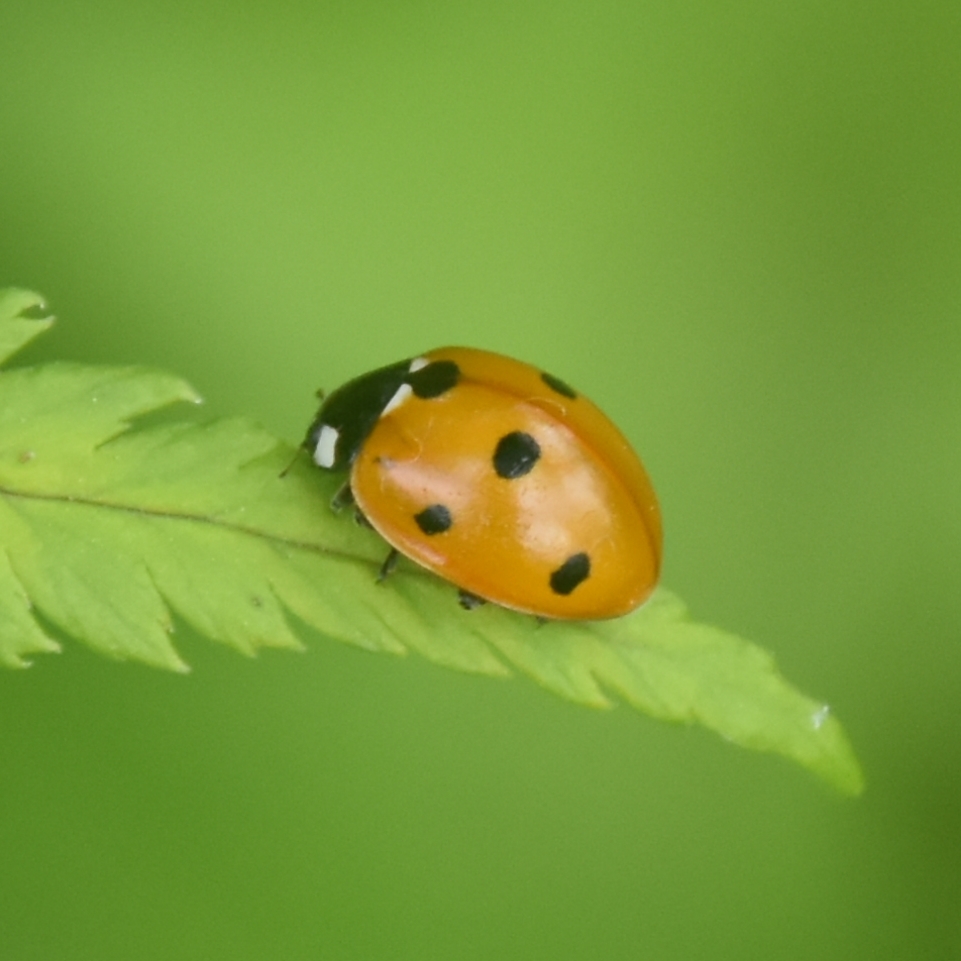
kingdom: Animalia
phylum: Arthropoda
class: Insecta
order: Coleoptera
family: Coccinellidae
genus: Coccinella
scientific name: Coccinella septempunctata
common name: Sevenspotted lady beetle
